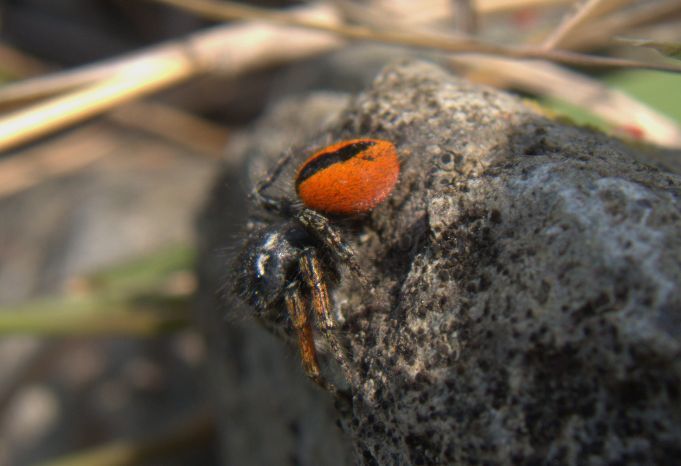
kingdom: Animalia
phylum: Arthropoda
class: Arachnida
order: Araneae
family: Salticidae
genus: Philaeus
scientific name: Philaeus chrysops
